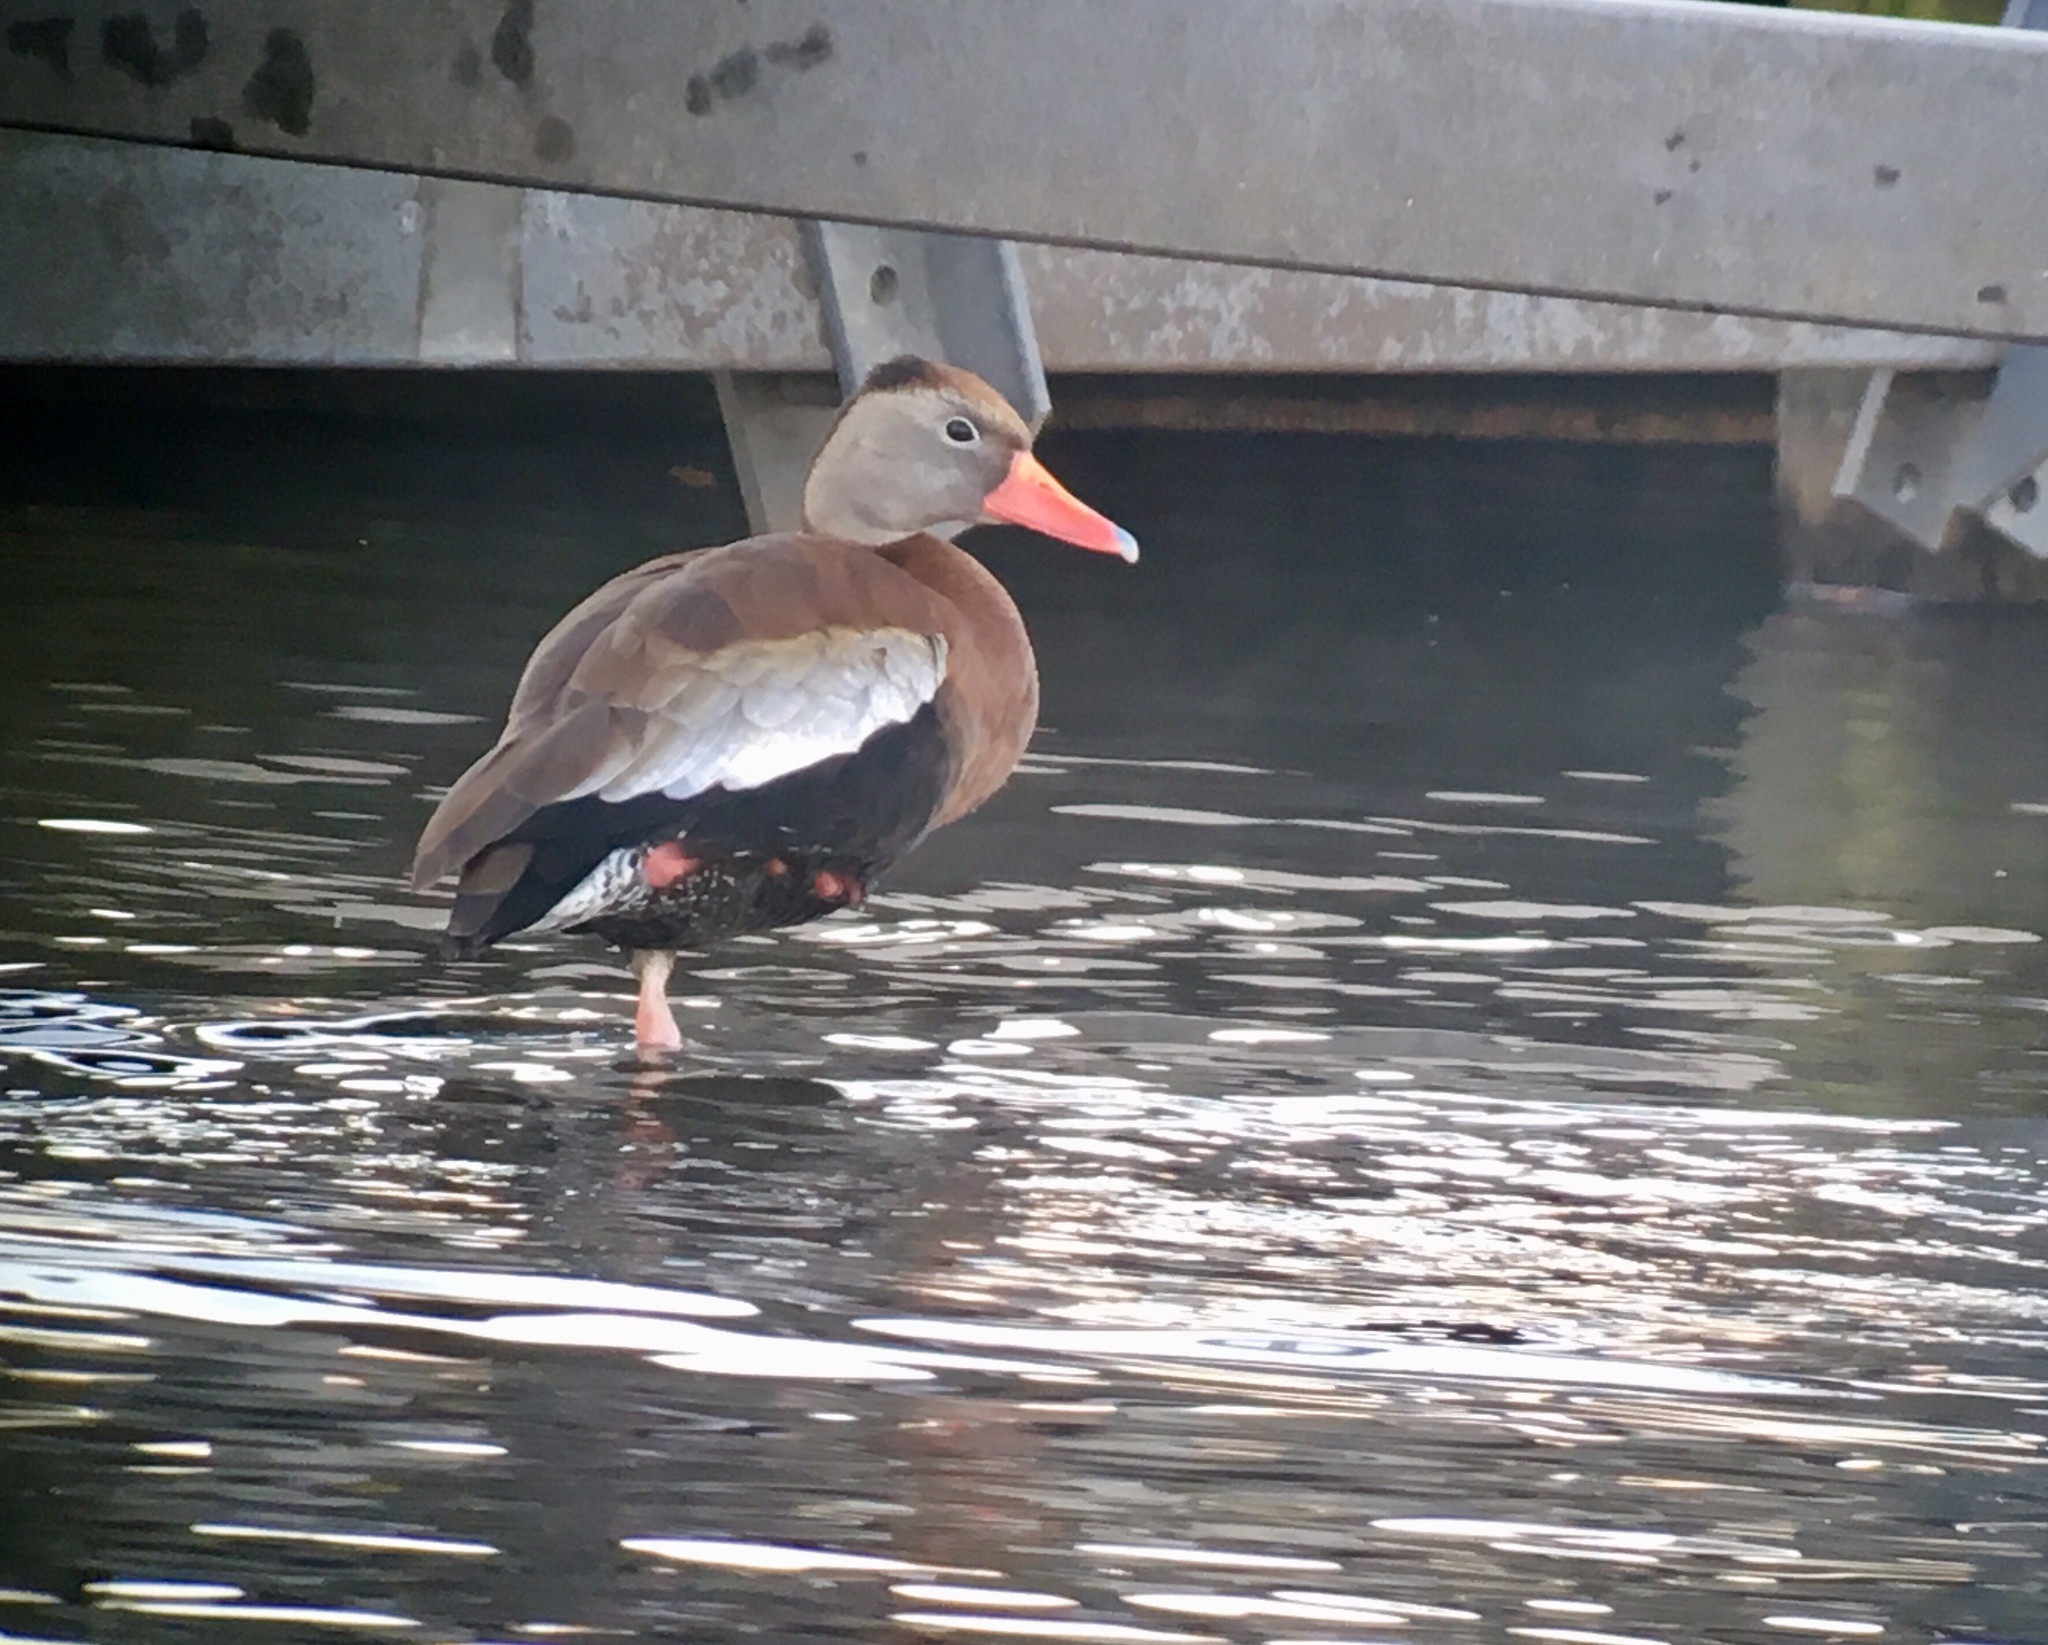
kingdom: Animalia
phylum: Chordata
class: Aves
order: Anseriformes
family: Anatidae
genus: Dendrocygna
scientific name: Dendrocygna autumnalis
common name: Black-bellied whistling duck
